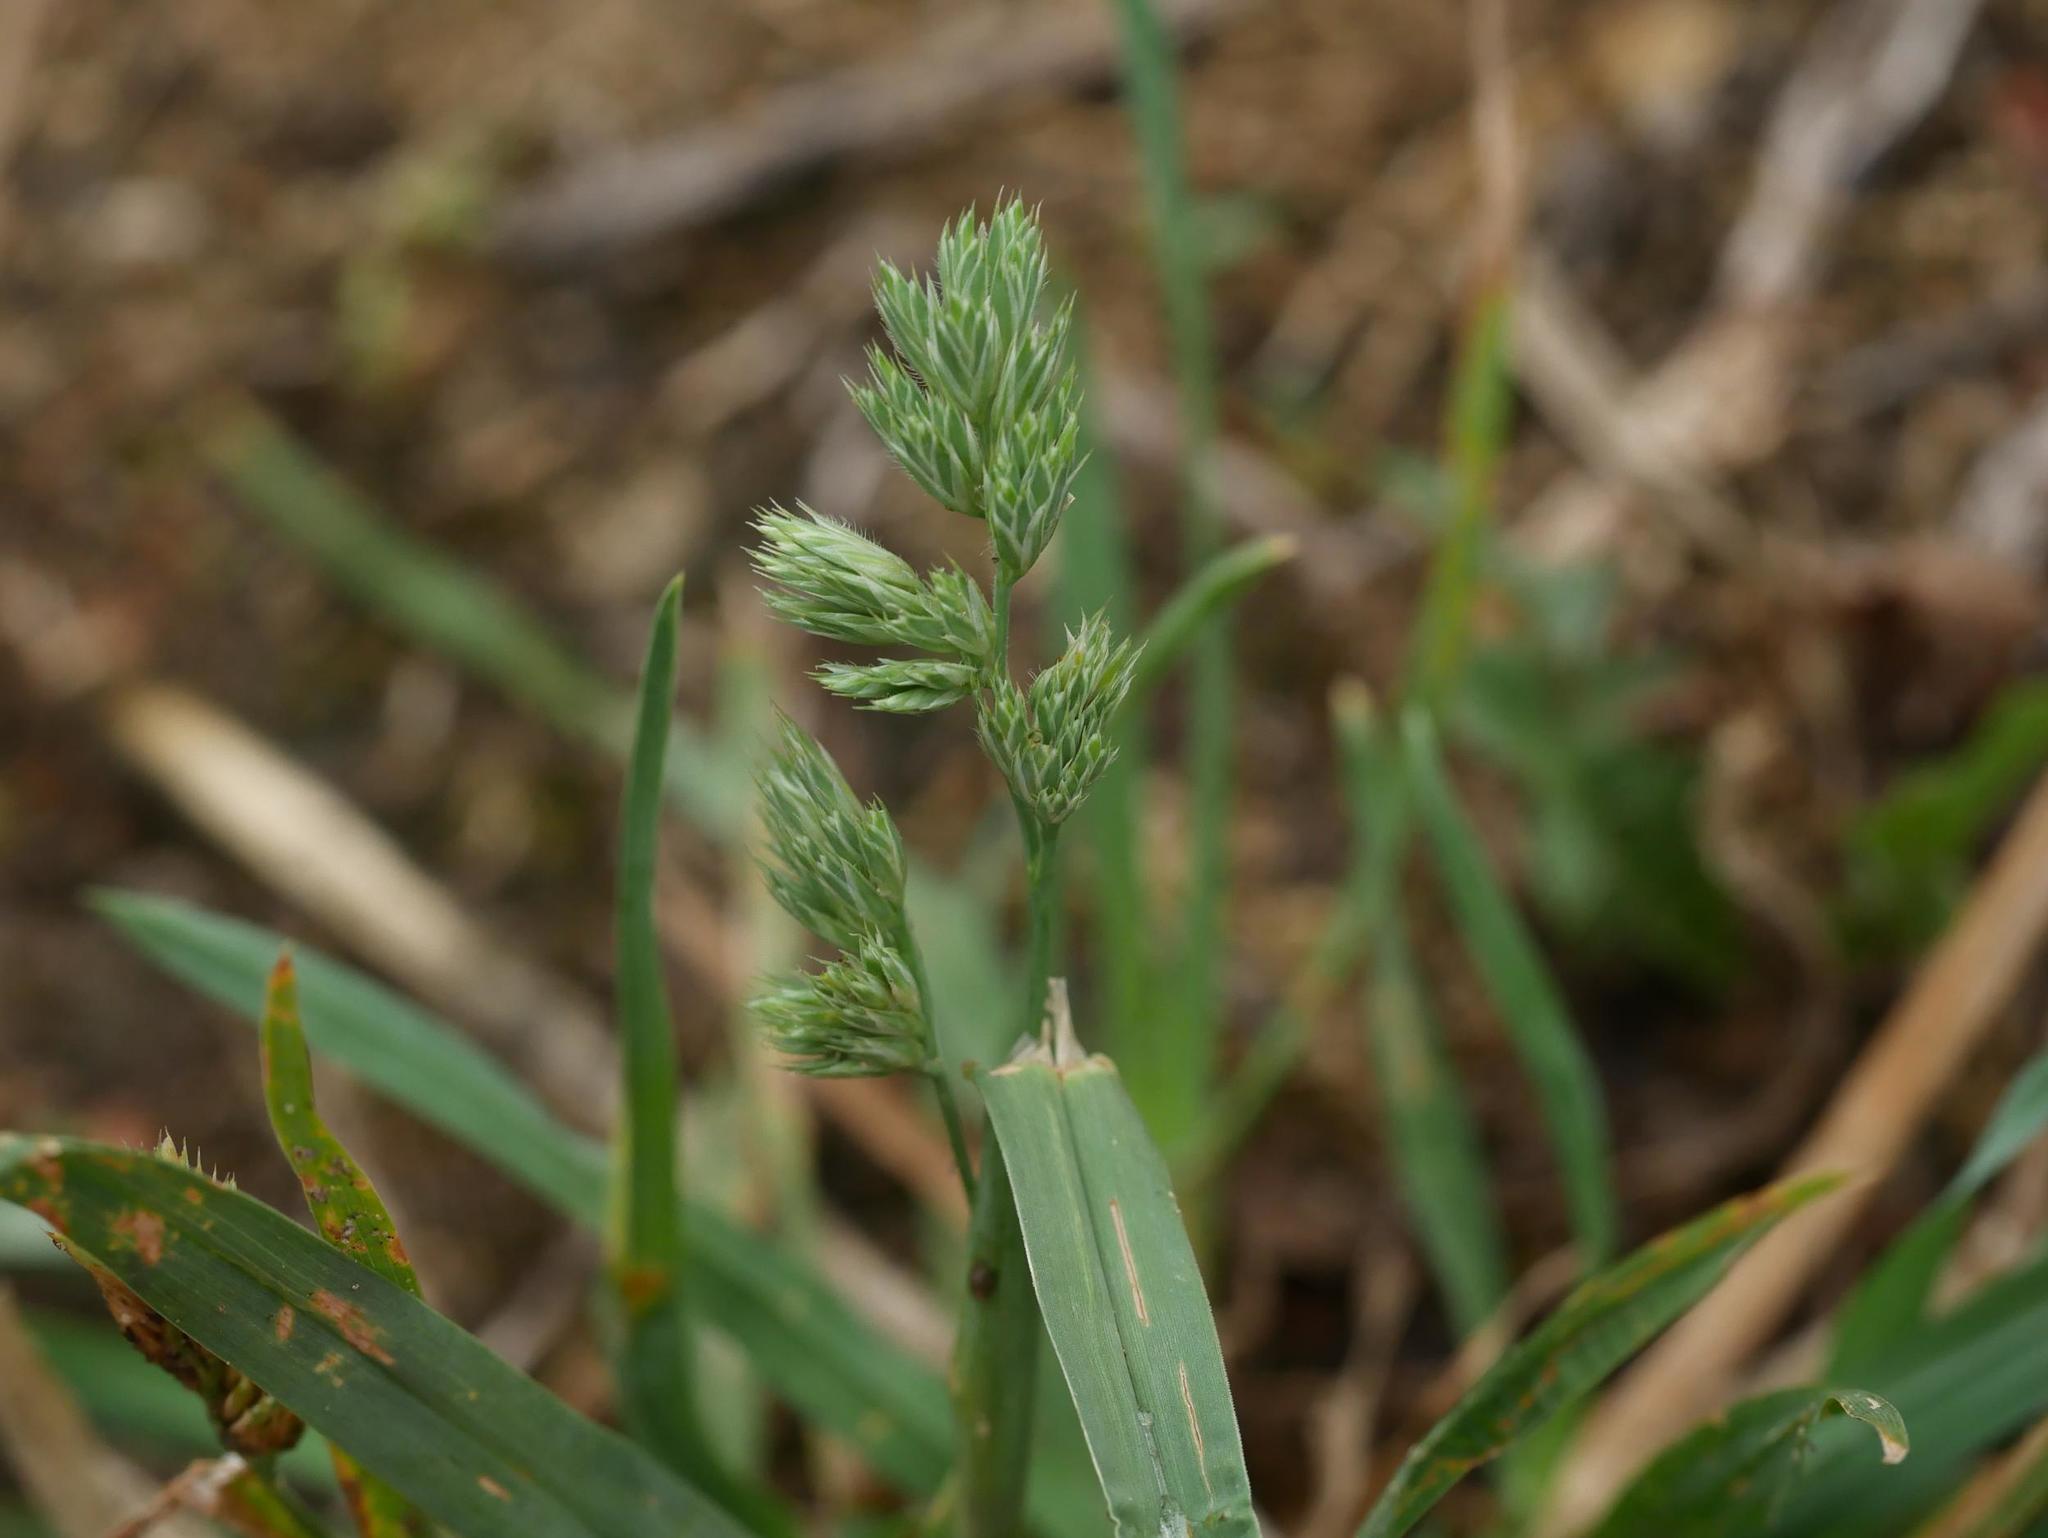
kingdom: Plantae
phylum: Tracheophyta
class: Liliopsida
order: Poales
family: Poaceae
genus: Dactylis
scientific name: Dactylis glomerata
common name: Orchardgrass
